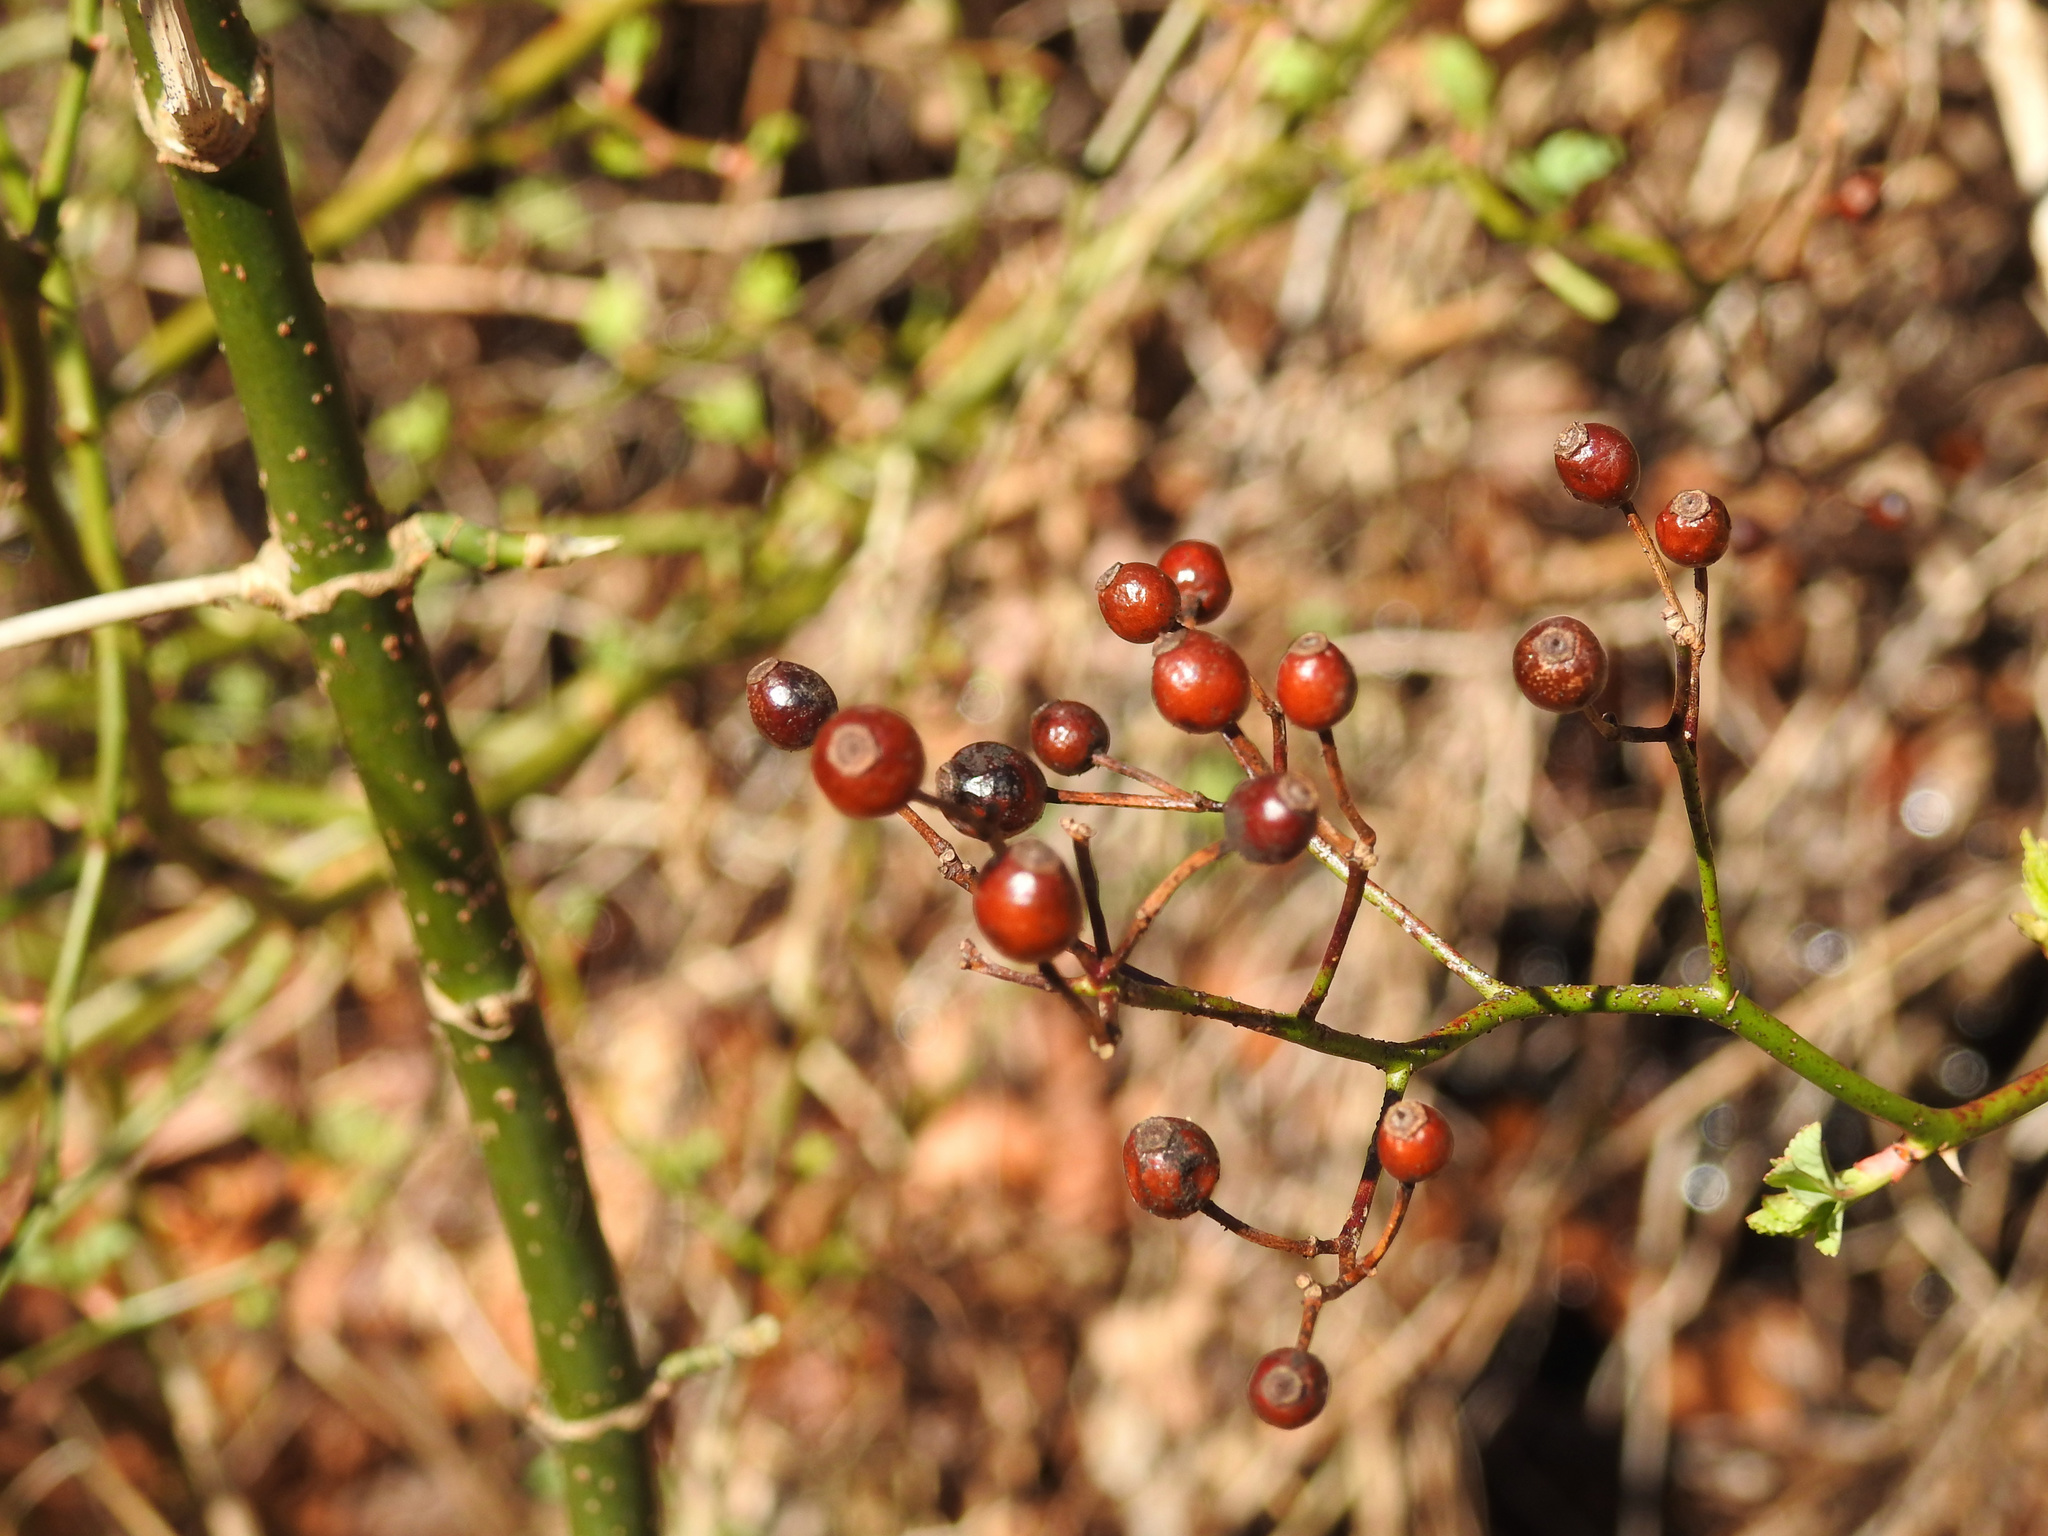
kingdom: Plantae
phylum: Tracheophyta
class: Magnoliopsida
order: Rosales
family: Rosaceae
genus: Rosa
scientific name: Rosa multiflora
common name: Multiflora rose
